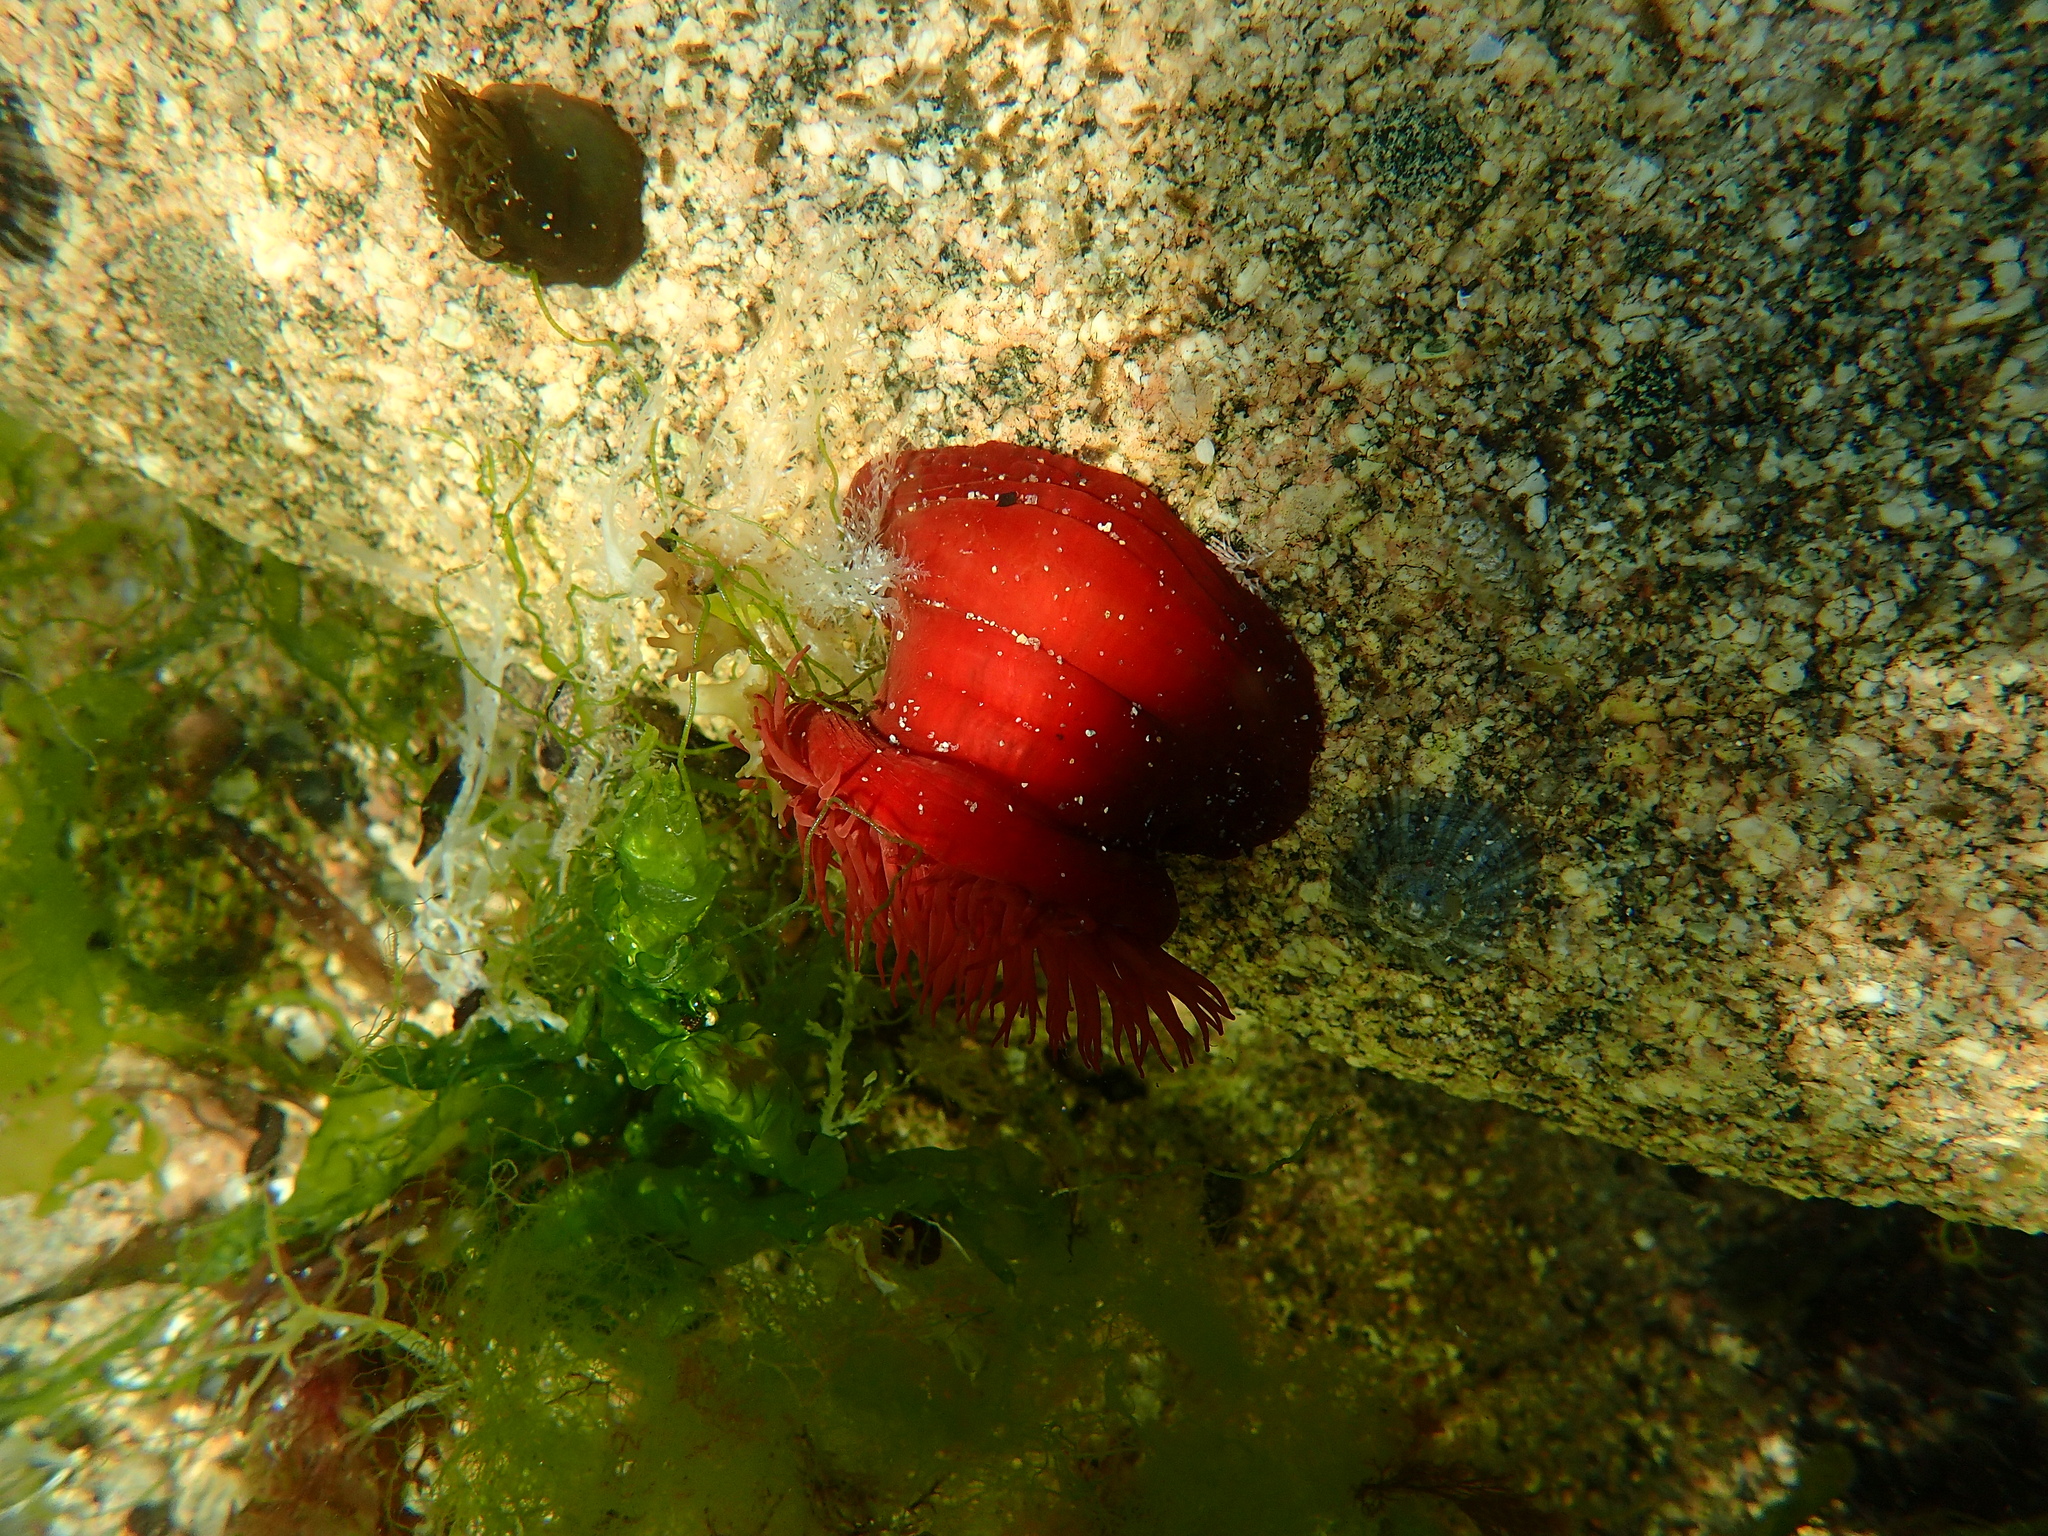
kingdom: Animalia
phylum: Cnidaria
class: Anthozoa
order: Actiniaria
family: Actiniidae
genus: Actinia
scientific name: Actinia equina
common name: Beadlet anemone
